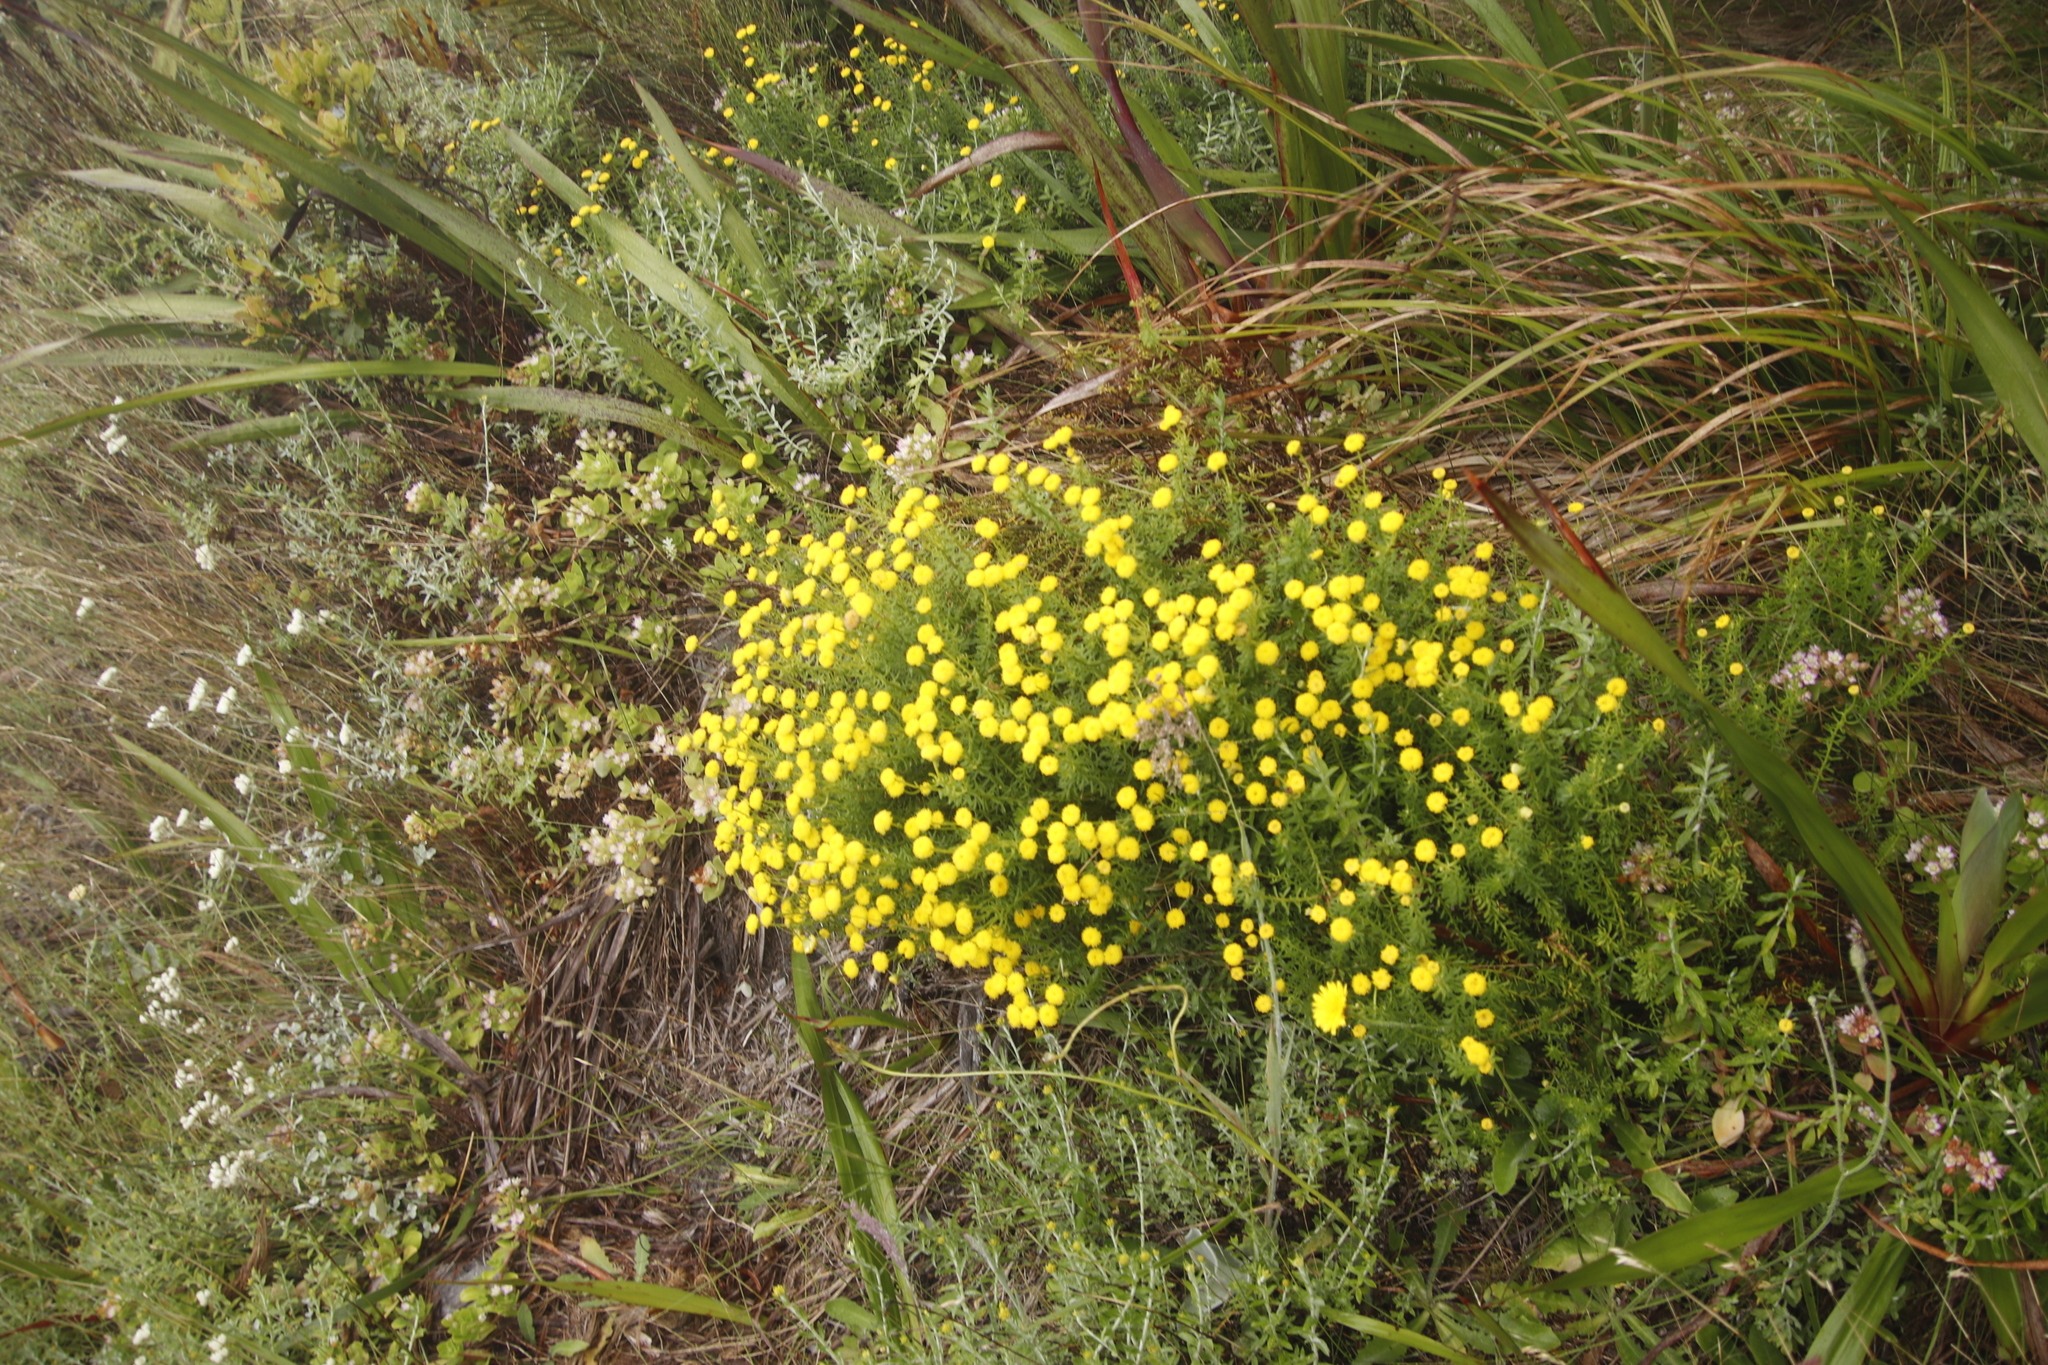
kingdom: Plantae
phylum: Tracheophyta
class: Magnoliopsida
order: Asterales
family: Asteraceae
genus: Chrysocoma
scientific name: Chrysocoma cernua
